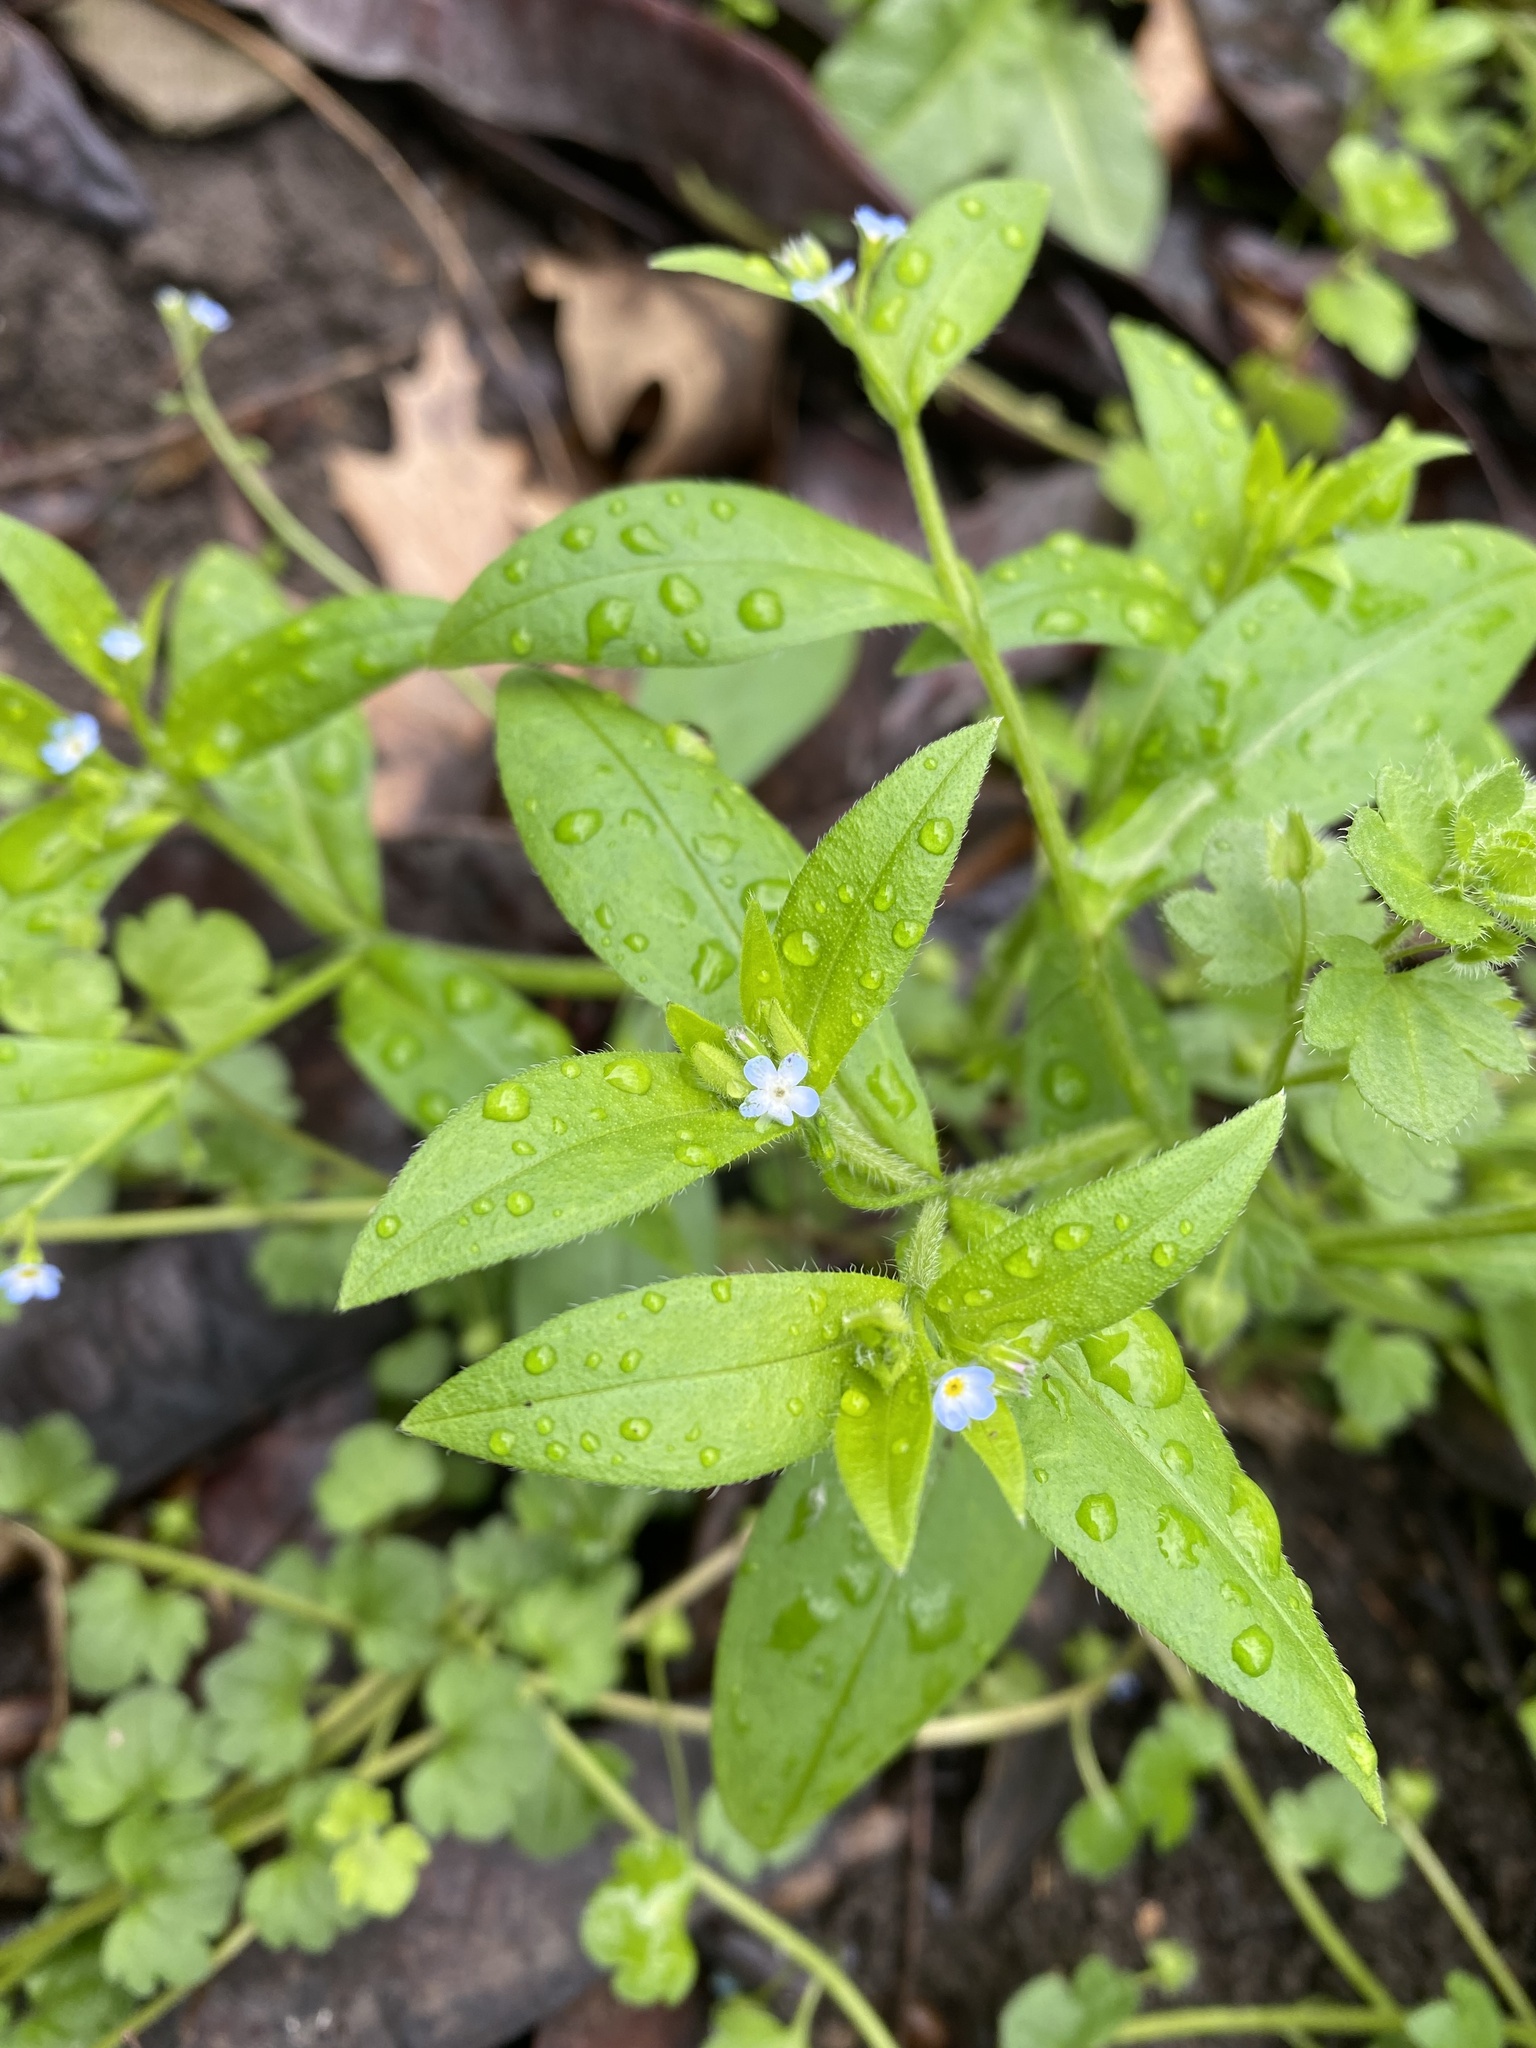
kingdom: Plantae
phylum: Tracheophyta
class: Magnoliopsida
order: Boraginales
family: Boraginaceae
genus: Myosotis
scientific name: Myosotis sparsiflora
